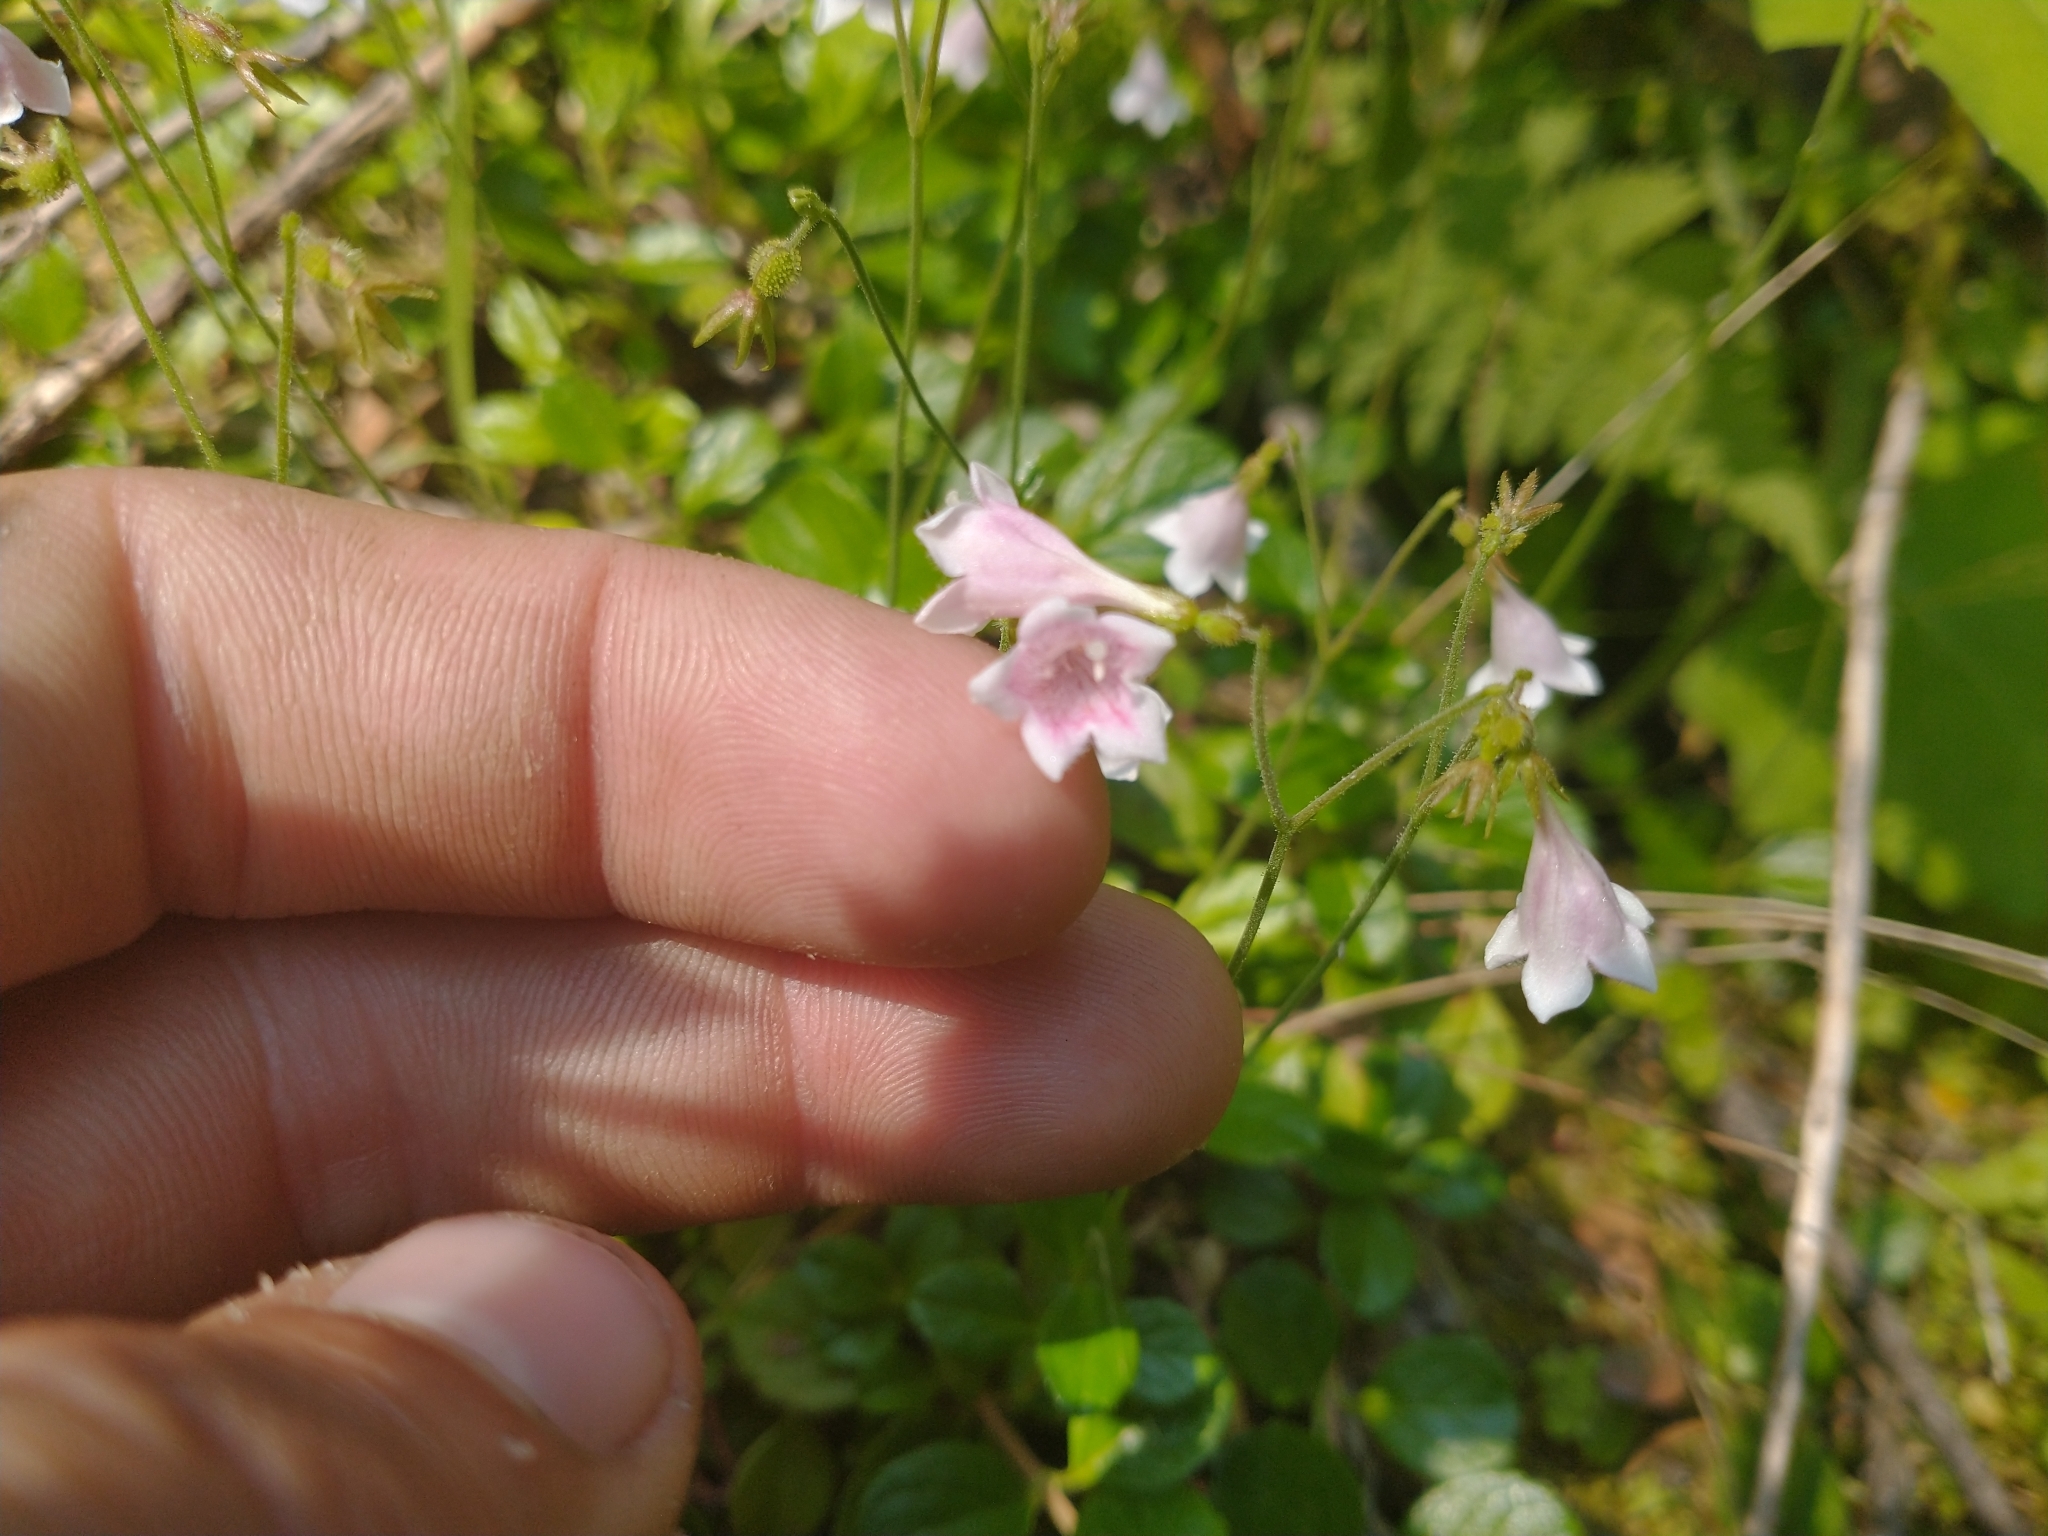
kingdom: Plantae
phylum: Tracheophyta
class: Magnoliopsida
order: Dipsacales
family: Caprifoliaceae
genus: Linnaea
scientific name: Linnaea borealis
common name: Twinflower
